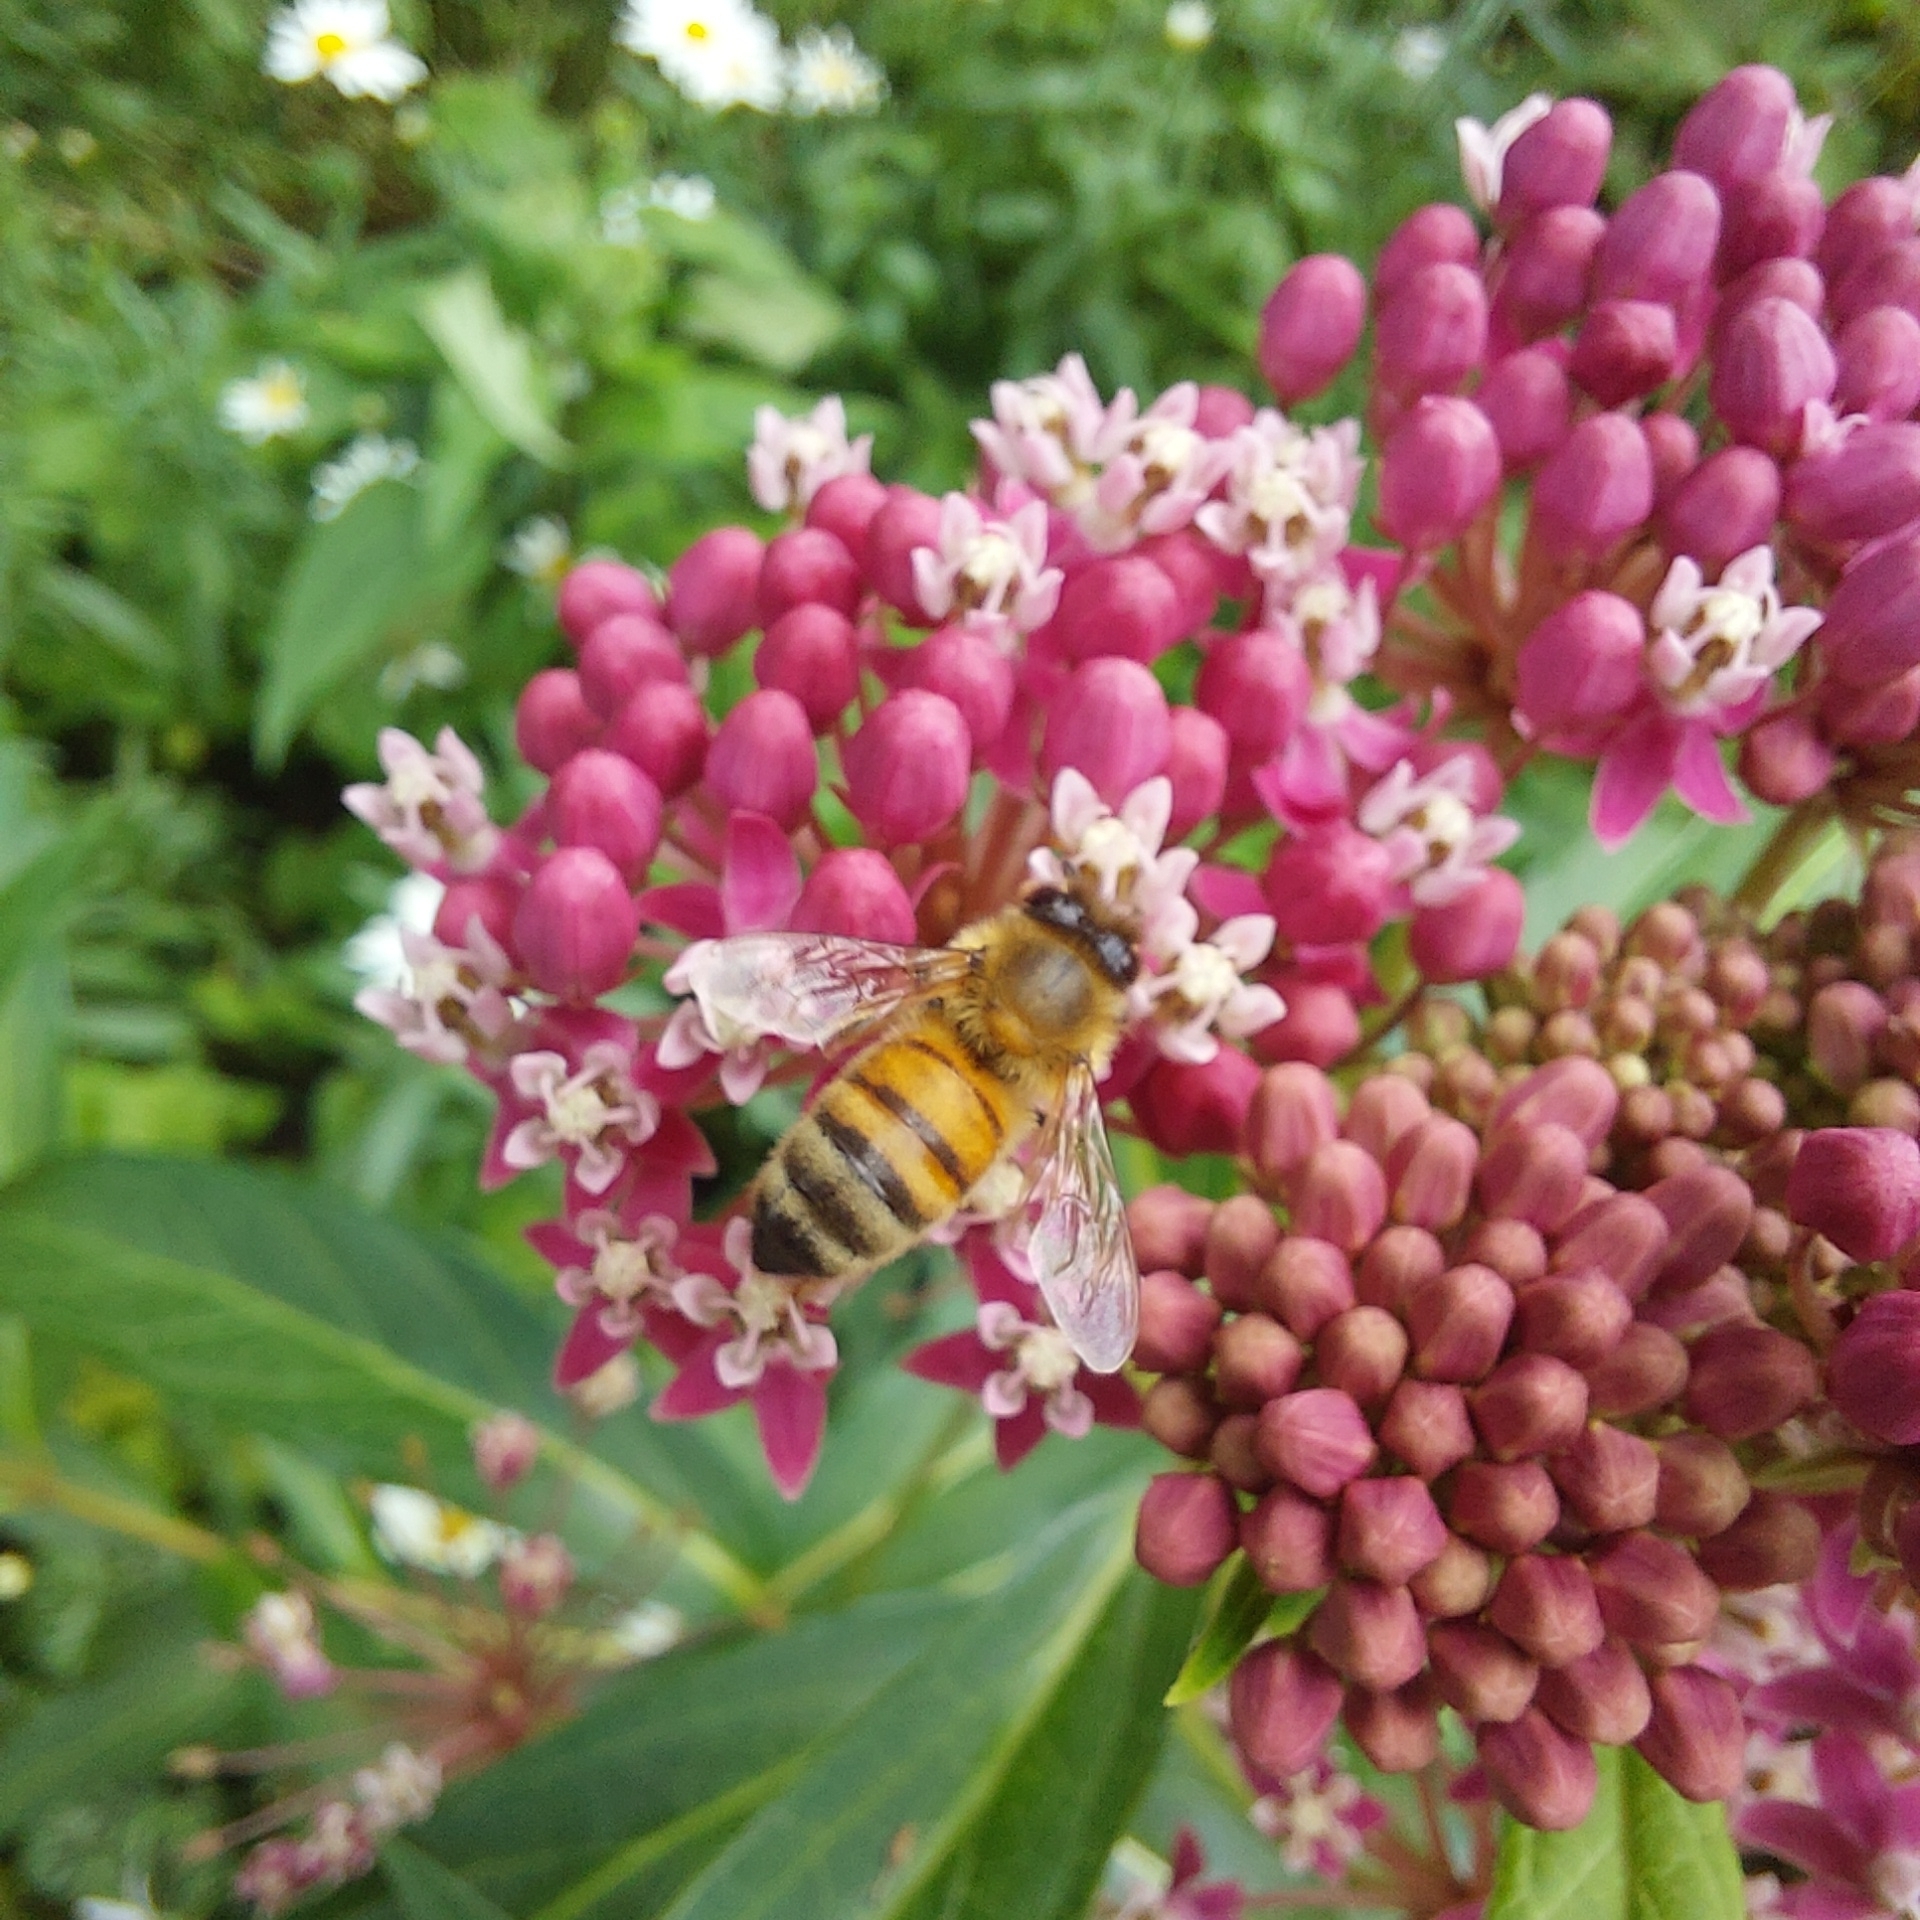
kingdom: Animalia
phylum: Arthropoda
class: Insecta
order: Hymenoptera
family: Apidae
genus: Apis
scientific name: Apis mellifera
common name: Honey bee
